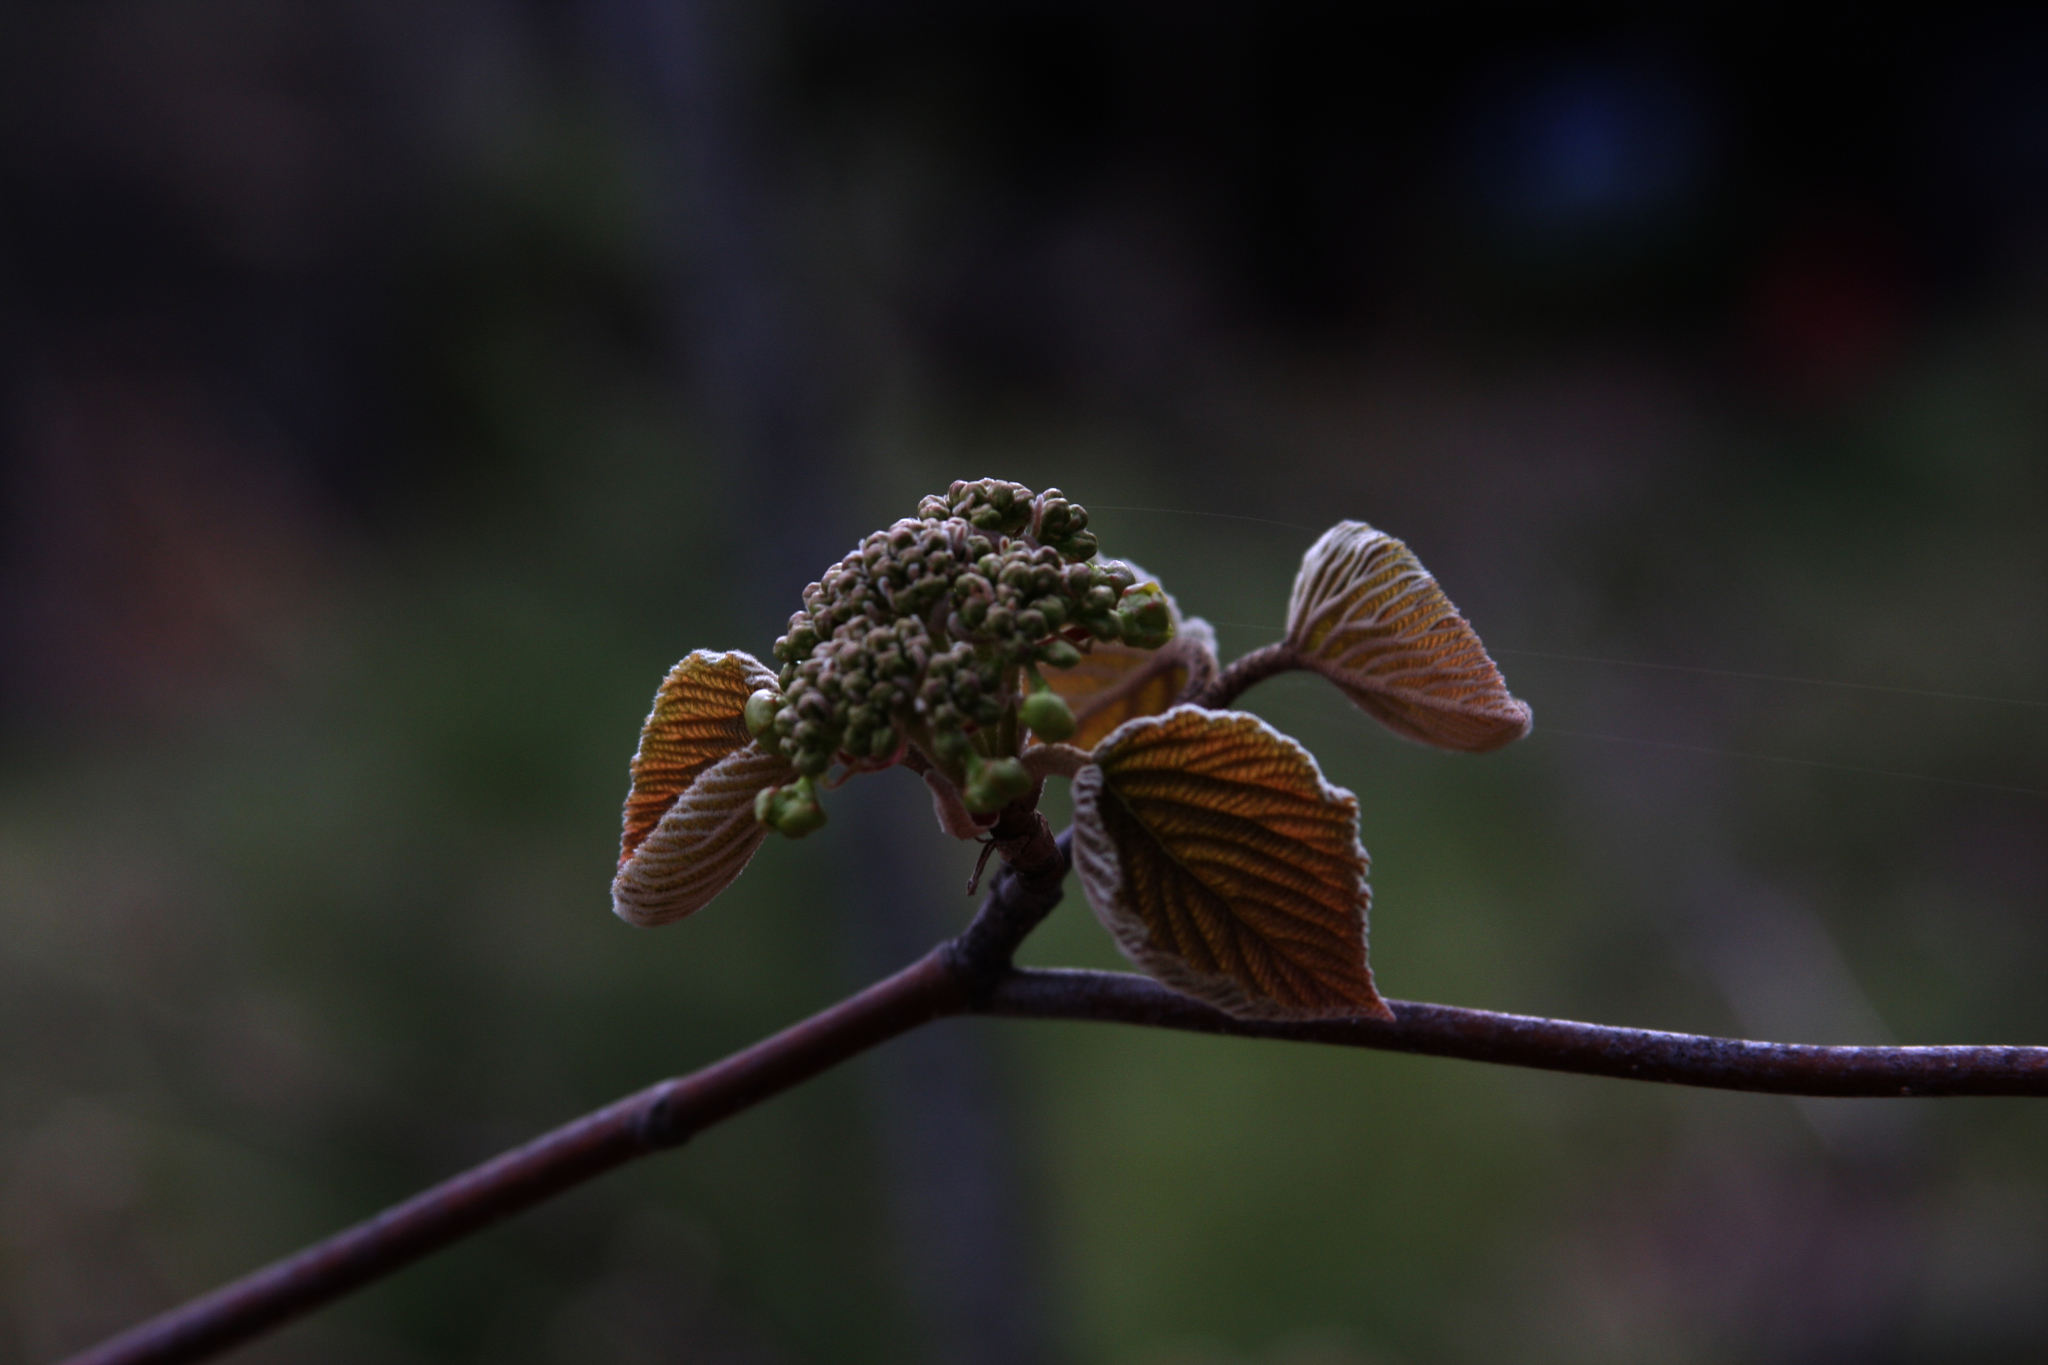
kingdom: Plantae
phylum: Tracheophyta
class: Magnoliopsida
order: Dipsacales
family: Viburnaceae
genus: Viburnum
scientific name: Viburnum lantanoides
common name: Hobblebush
